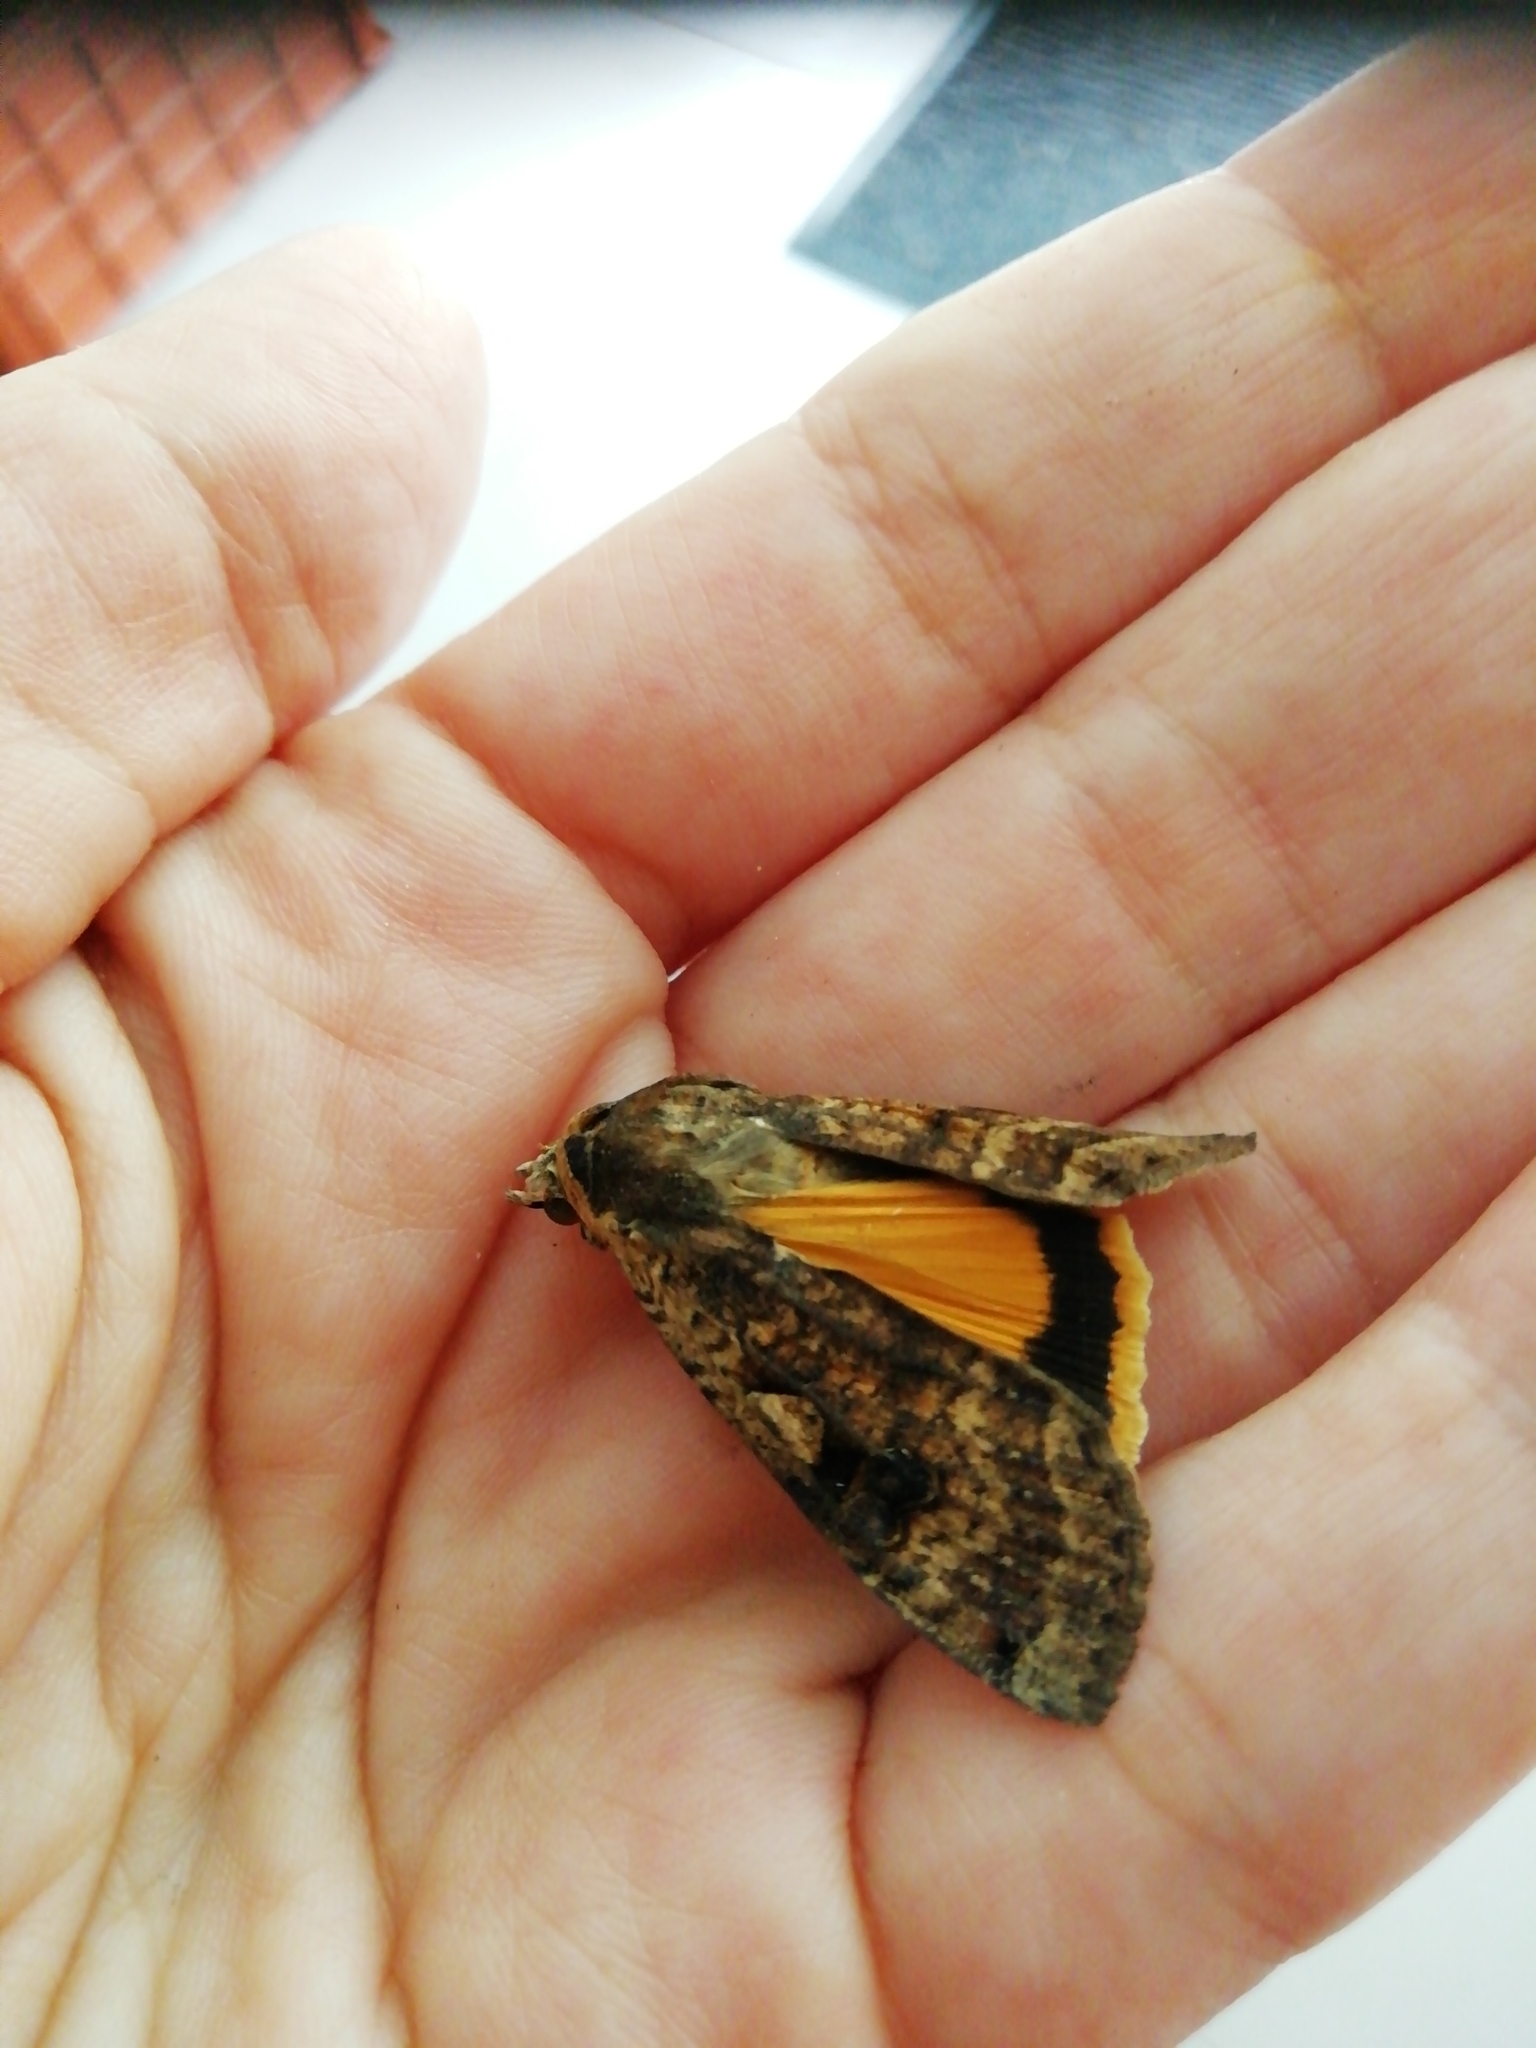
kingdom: Animalia
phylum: Arthropoda
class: Insecta
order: Lepidoptera
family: Noctuidae
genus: Noctua
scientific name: Noctua pronuba
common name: Large yellow underwing
